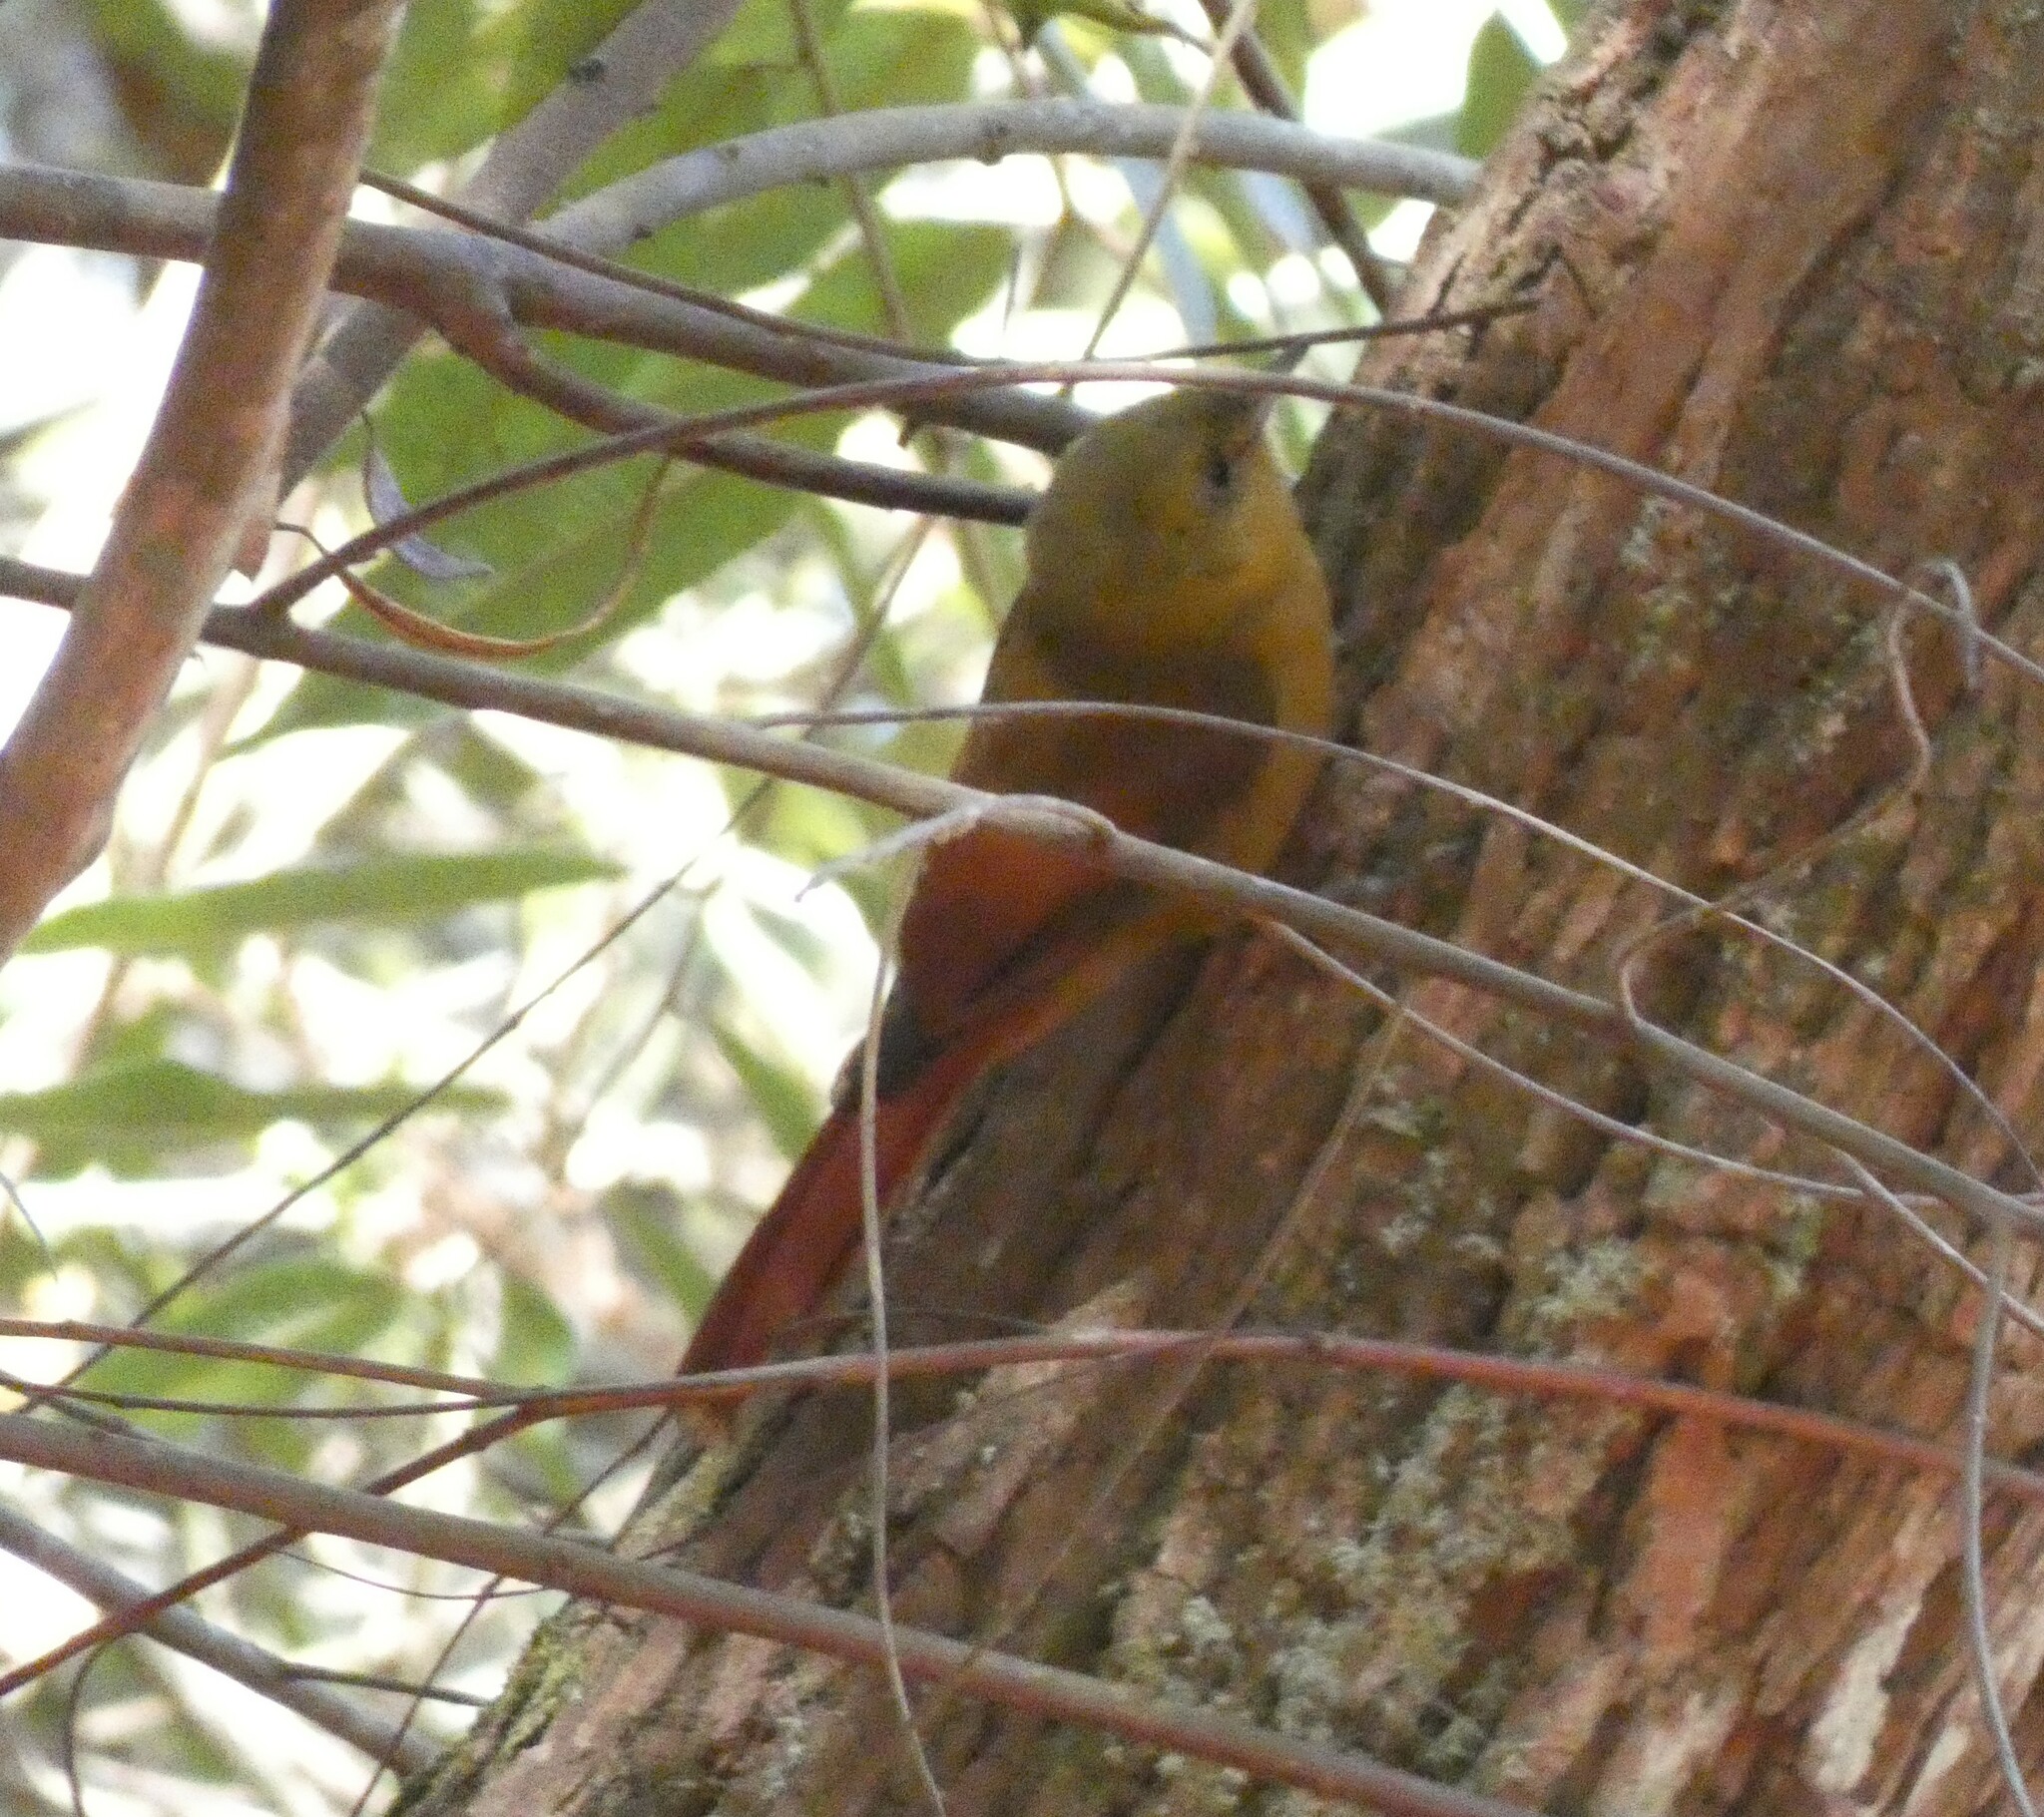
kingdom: Animalia
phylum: Chordata
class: Aves
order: Passeriformes
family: Furnariidae
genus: Sittasomus
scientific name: Sittasomus griseicapillus
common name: Olivaceous woodcreeper
